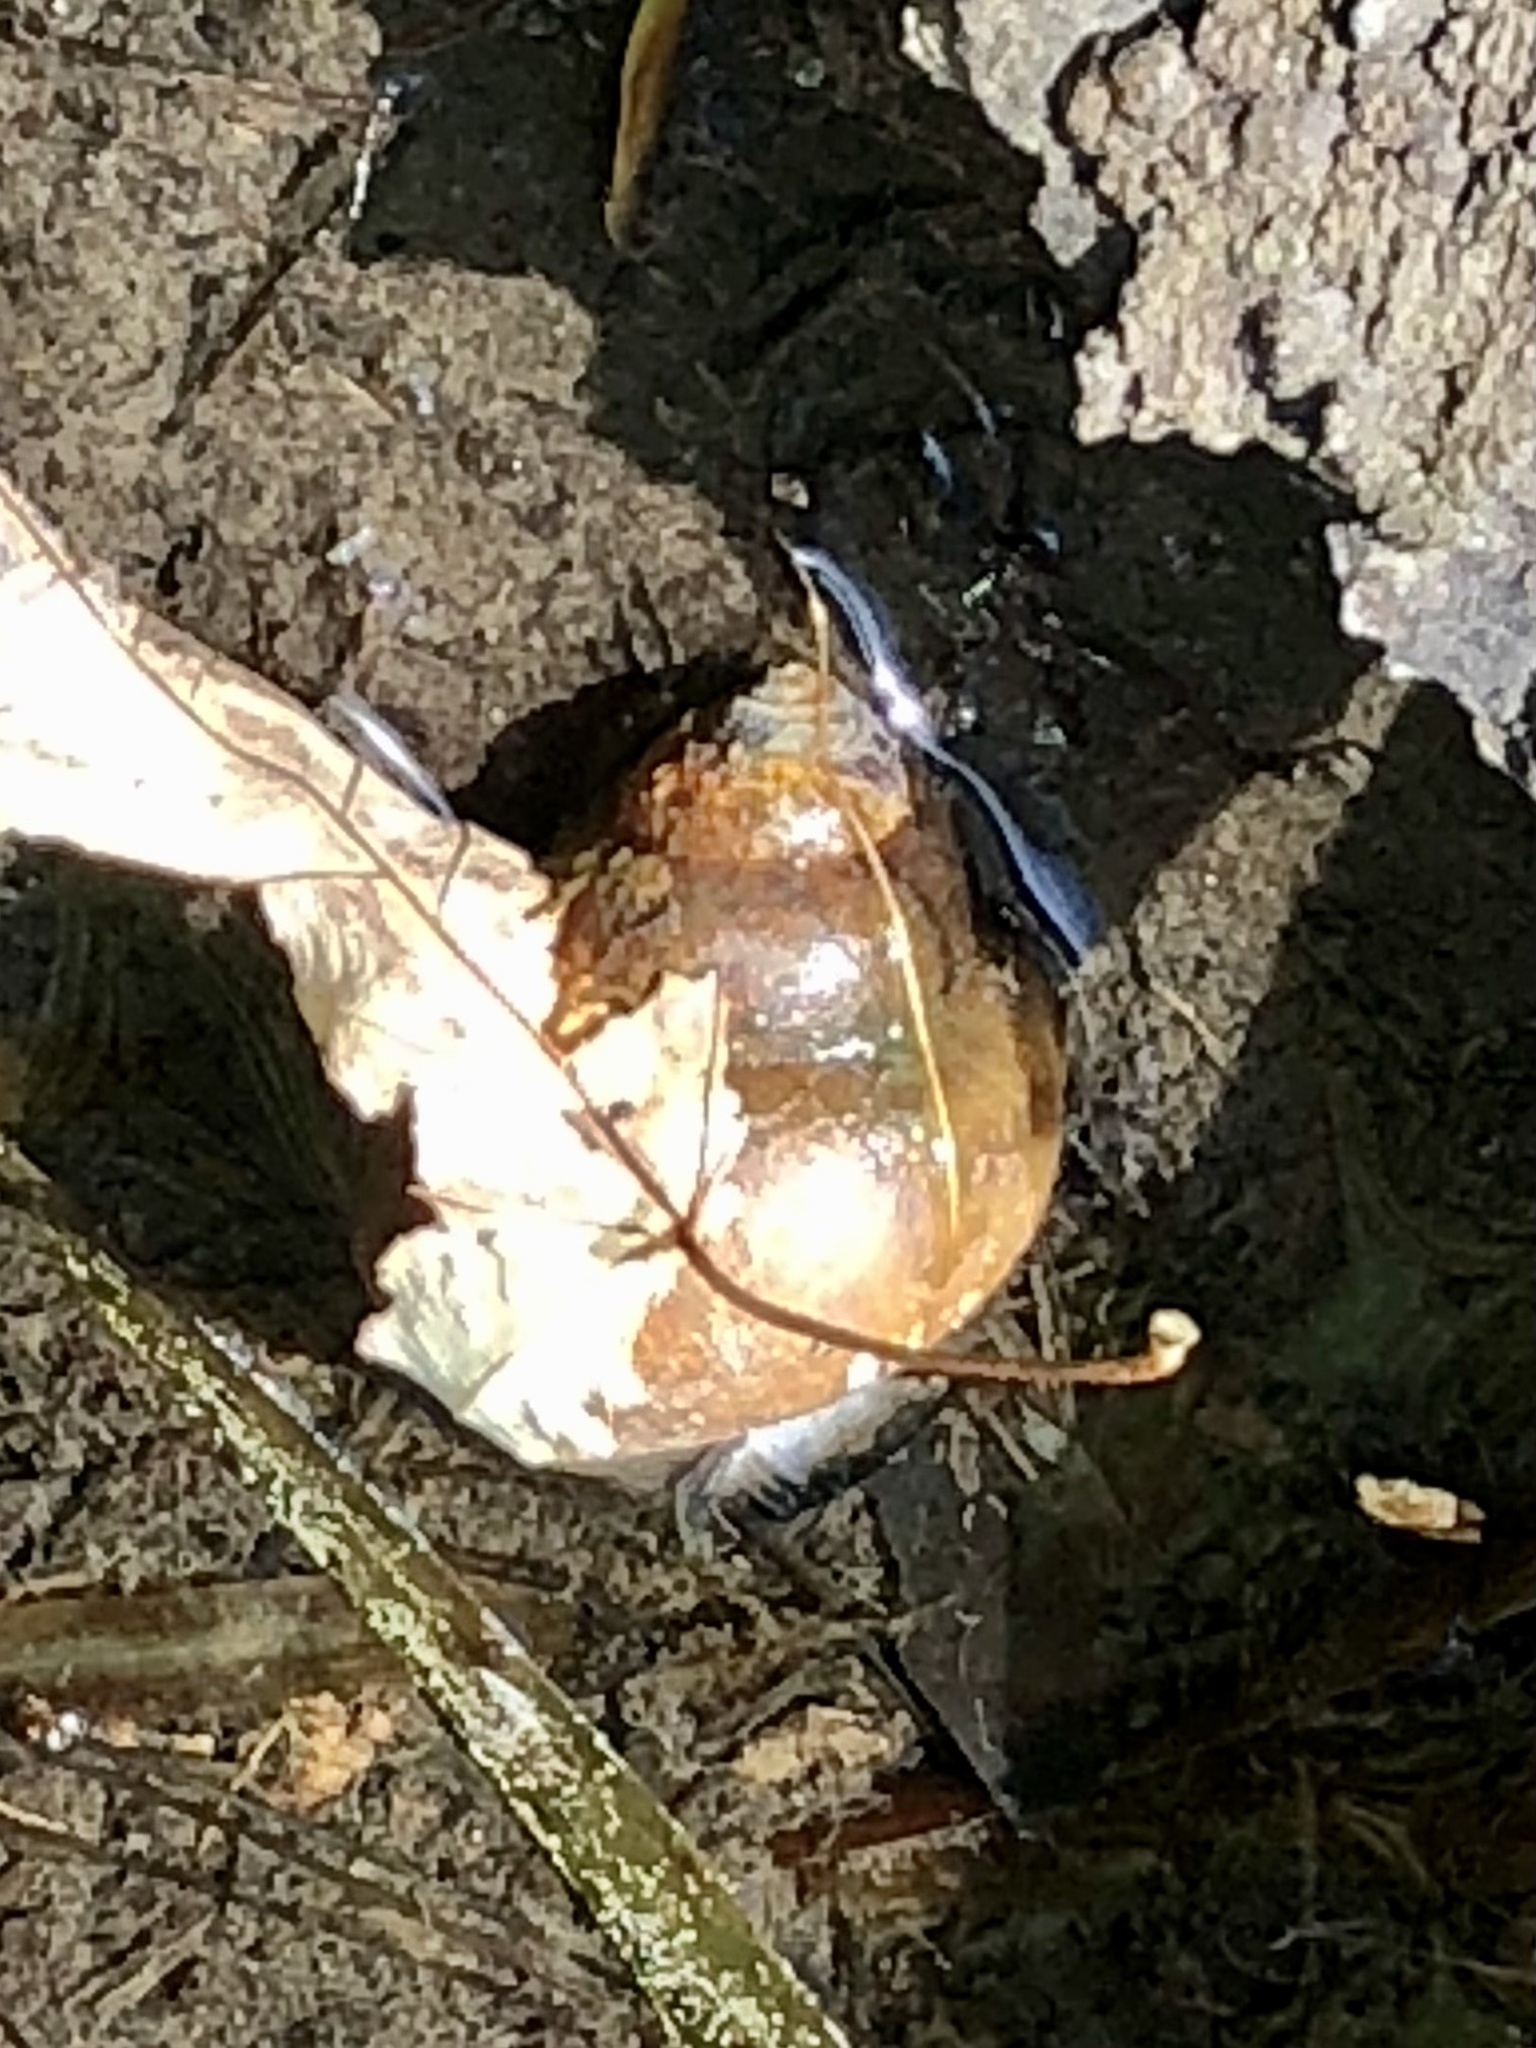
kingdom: Animalia
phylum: Mollusca
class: Gastropoda
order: Architaenioglossa
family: Viviparidae
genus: Cipangopaludina
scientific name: Cipangopaludina chinensis
